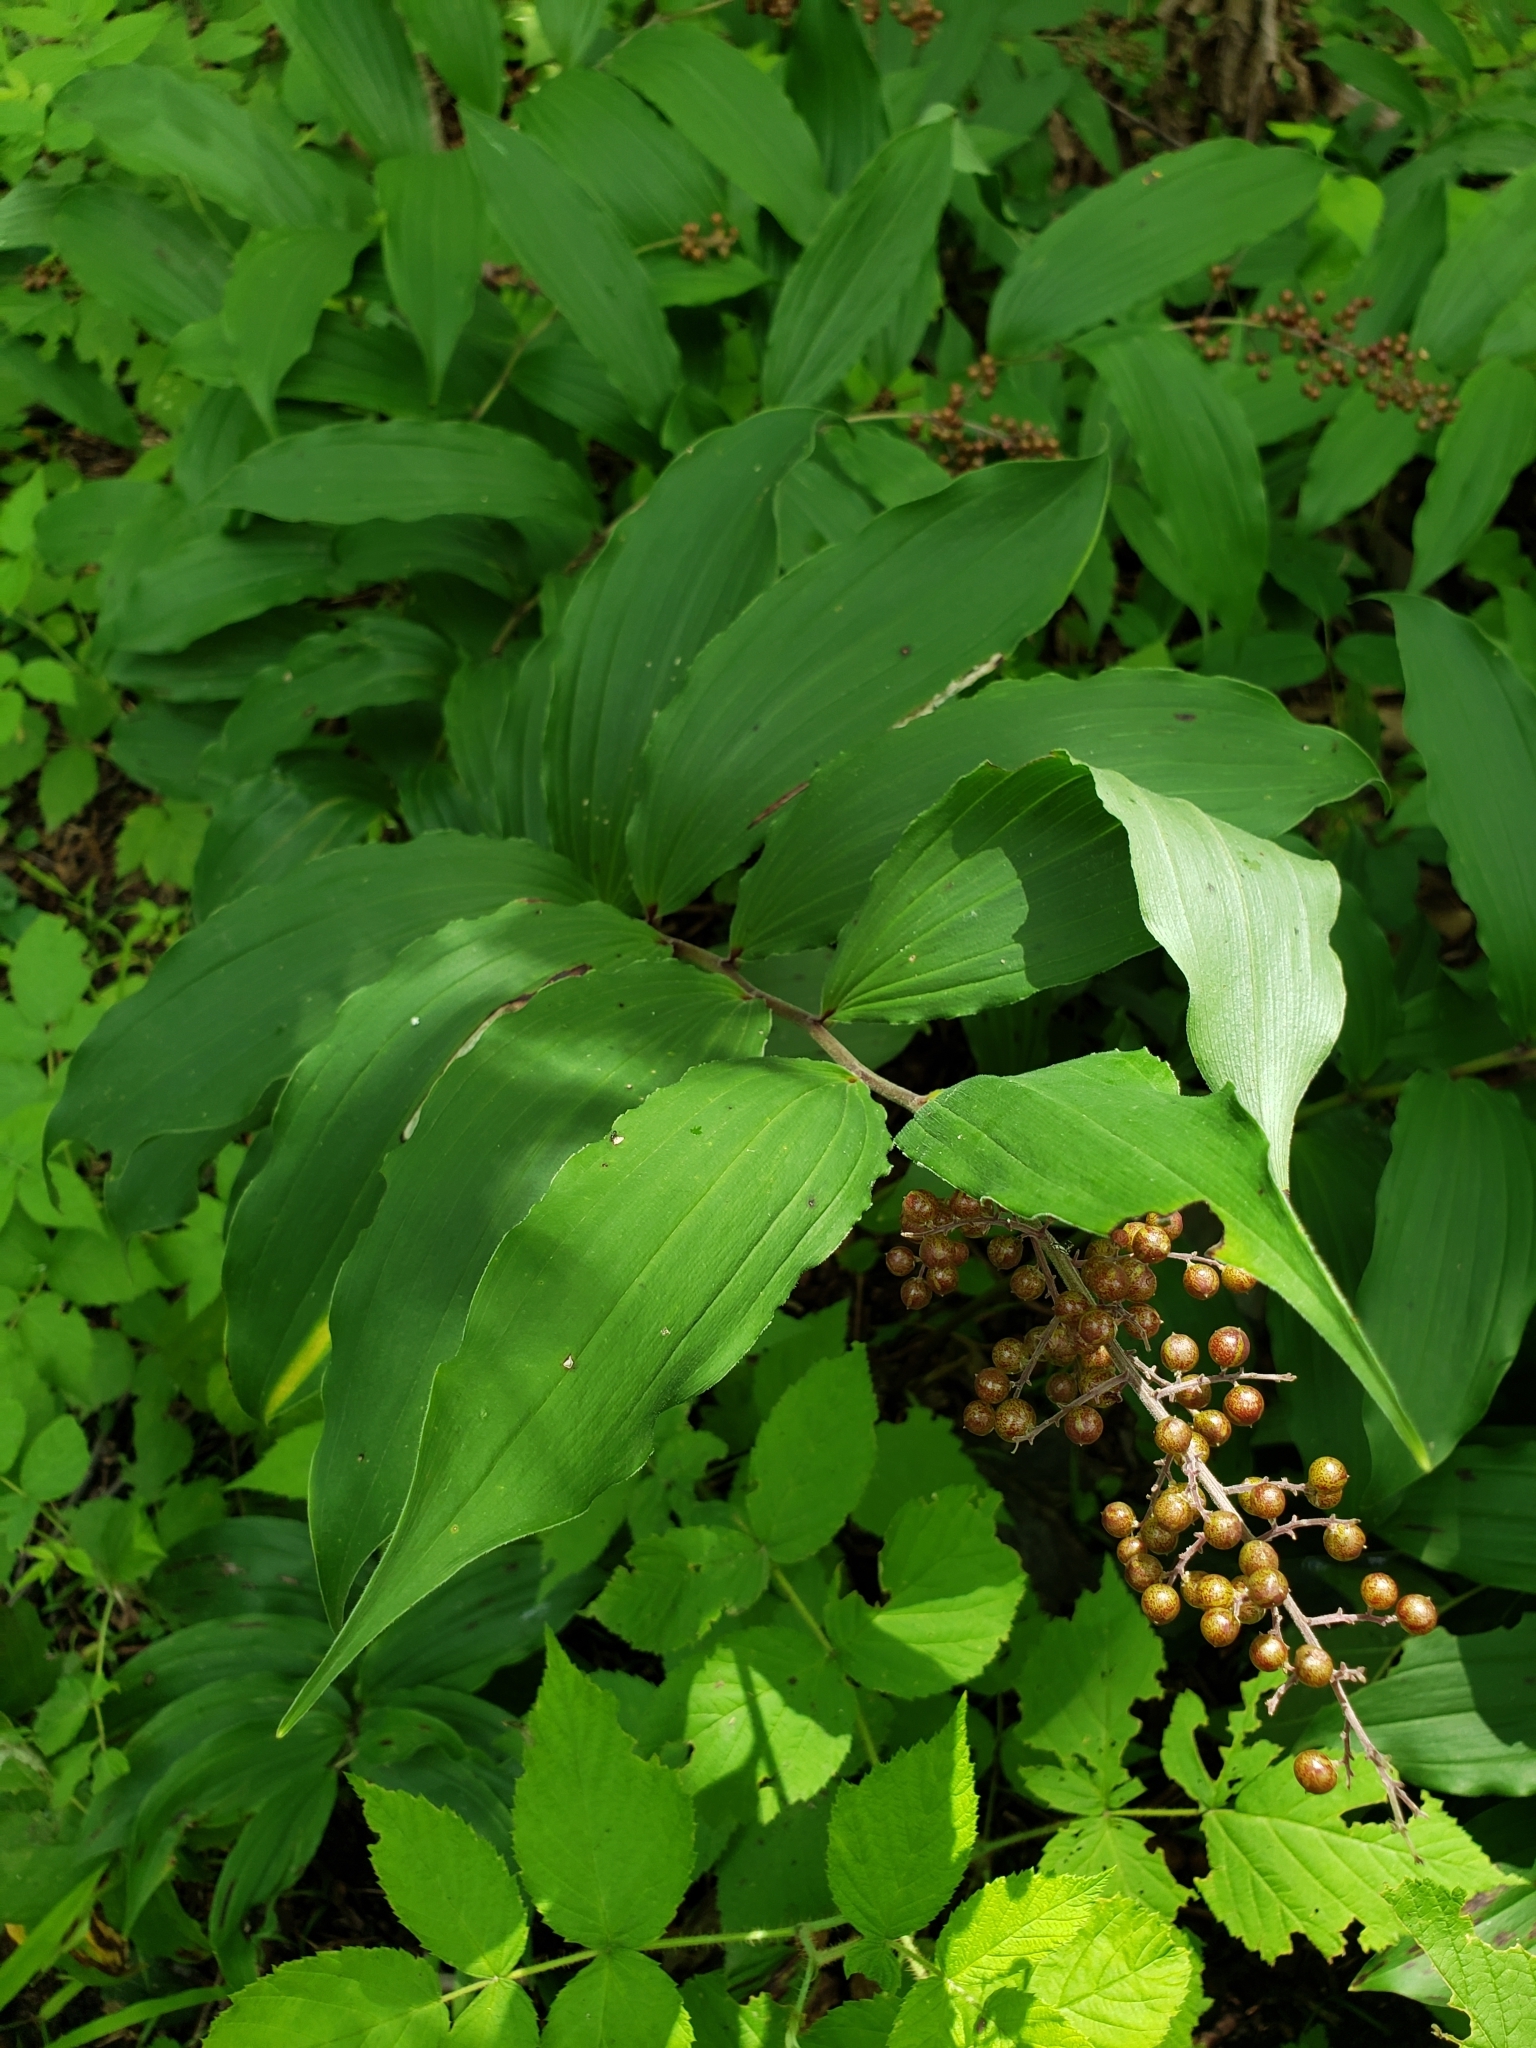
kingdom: Plantae
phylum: Tracheophyta
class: Liliopsida
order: Asparagales
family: Asparagaceae
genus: Maianthemum
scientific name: Maianthemum racemosum
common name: False spikenard
